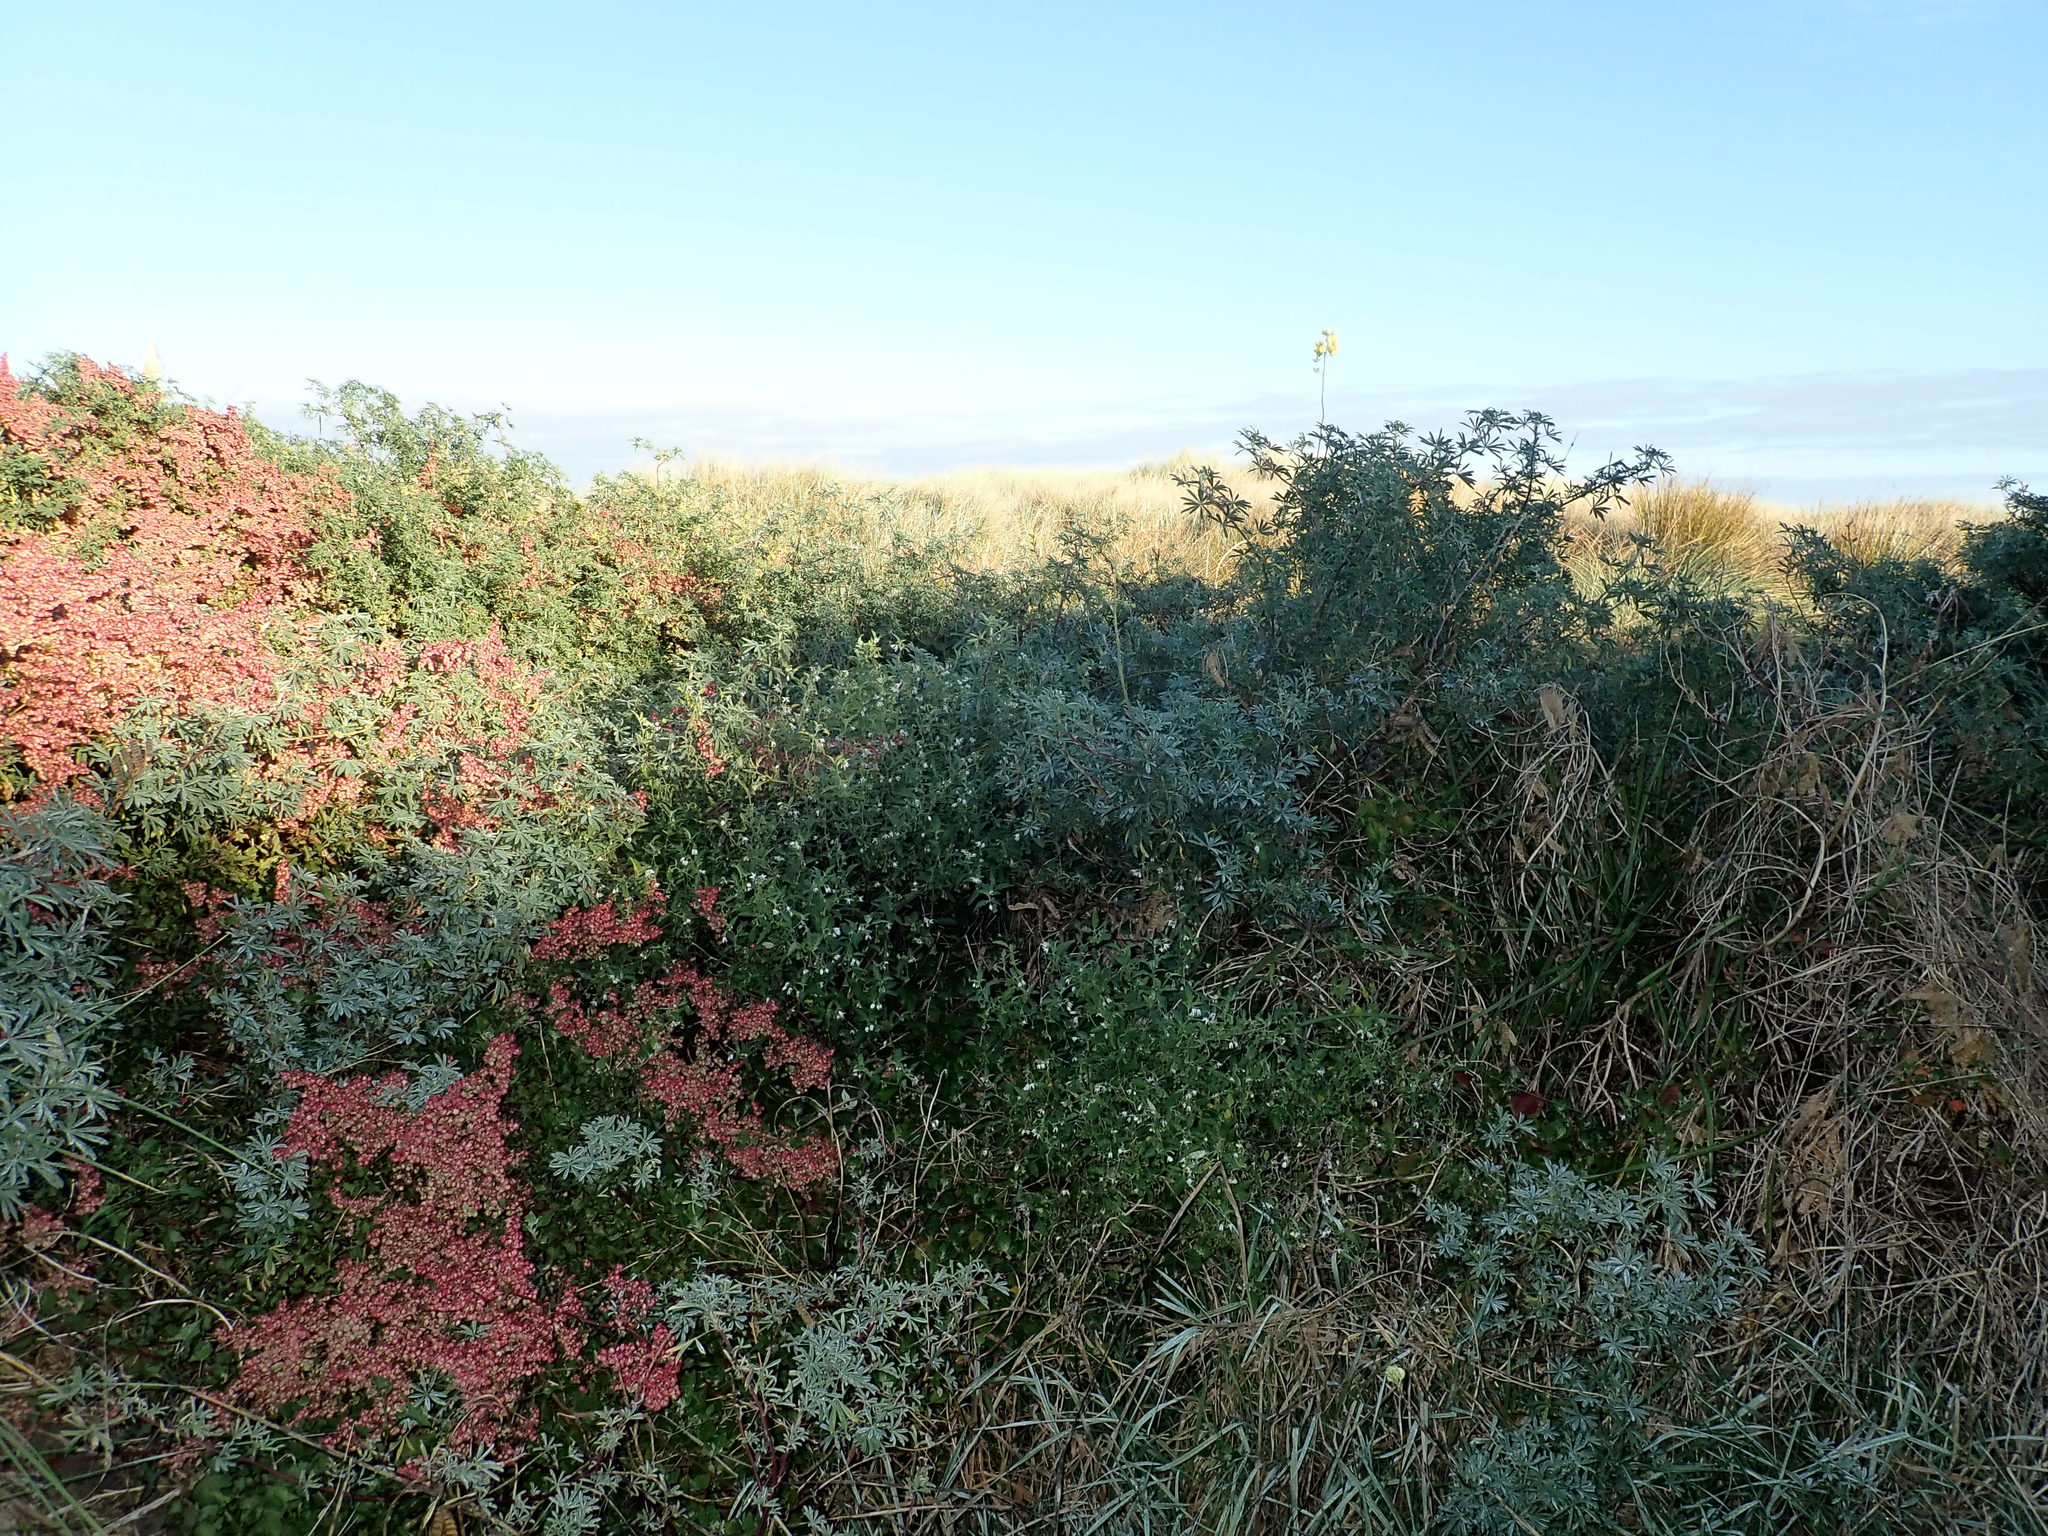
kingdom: Plantae
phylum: Tracheophyta
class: Magnoliopsida
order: Solanales
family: Solanaceae
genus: Solanum
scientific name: Solanum chenopodioides
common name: Tall nightshade
